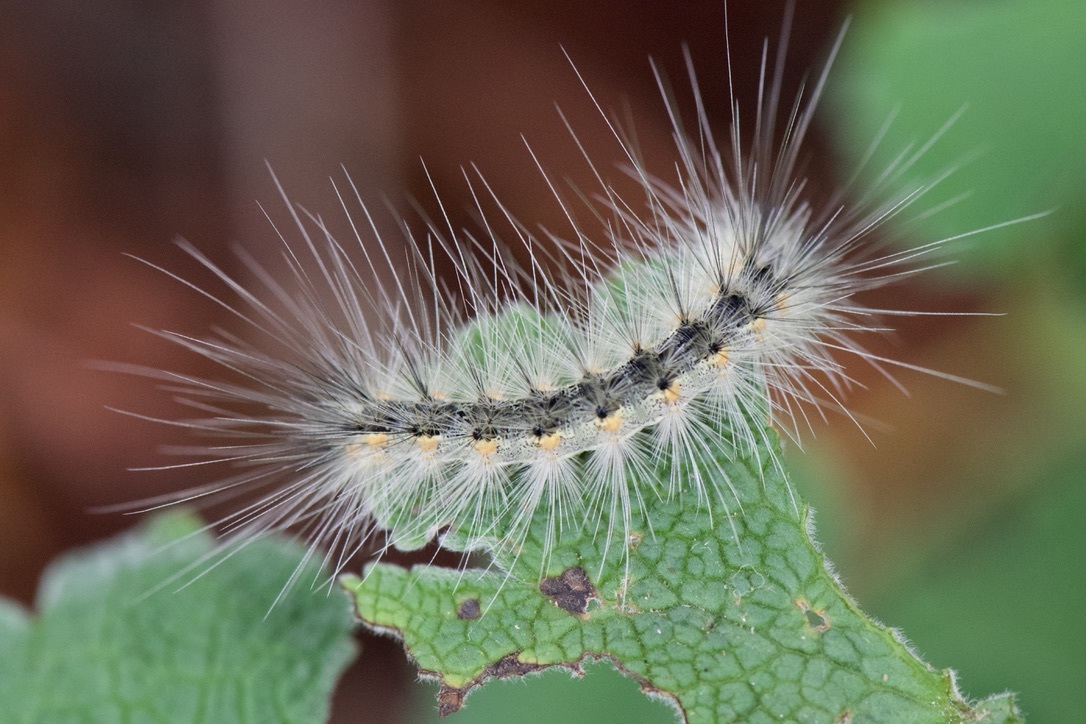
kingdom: Animalia
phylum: Arthropoda
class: Insecta
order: Lepidoptera
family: Erebidae
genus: Hyphantria
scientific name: Hyphantria cunea
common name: American white moth
